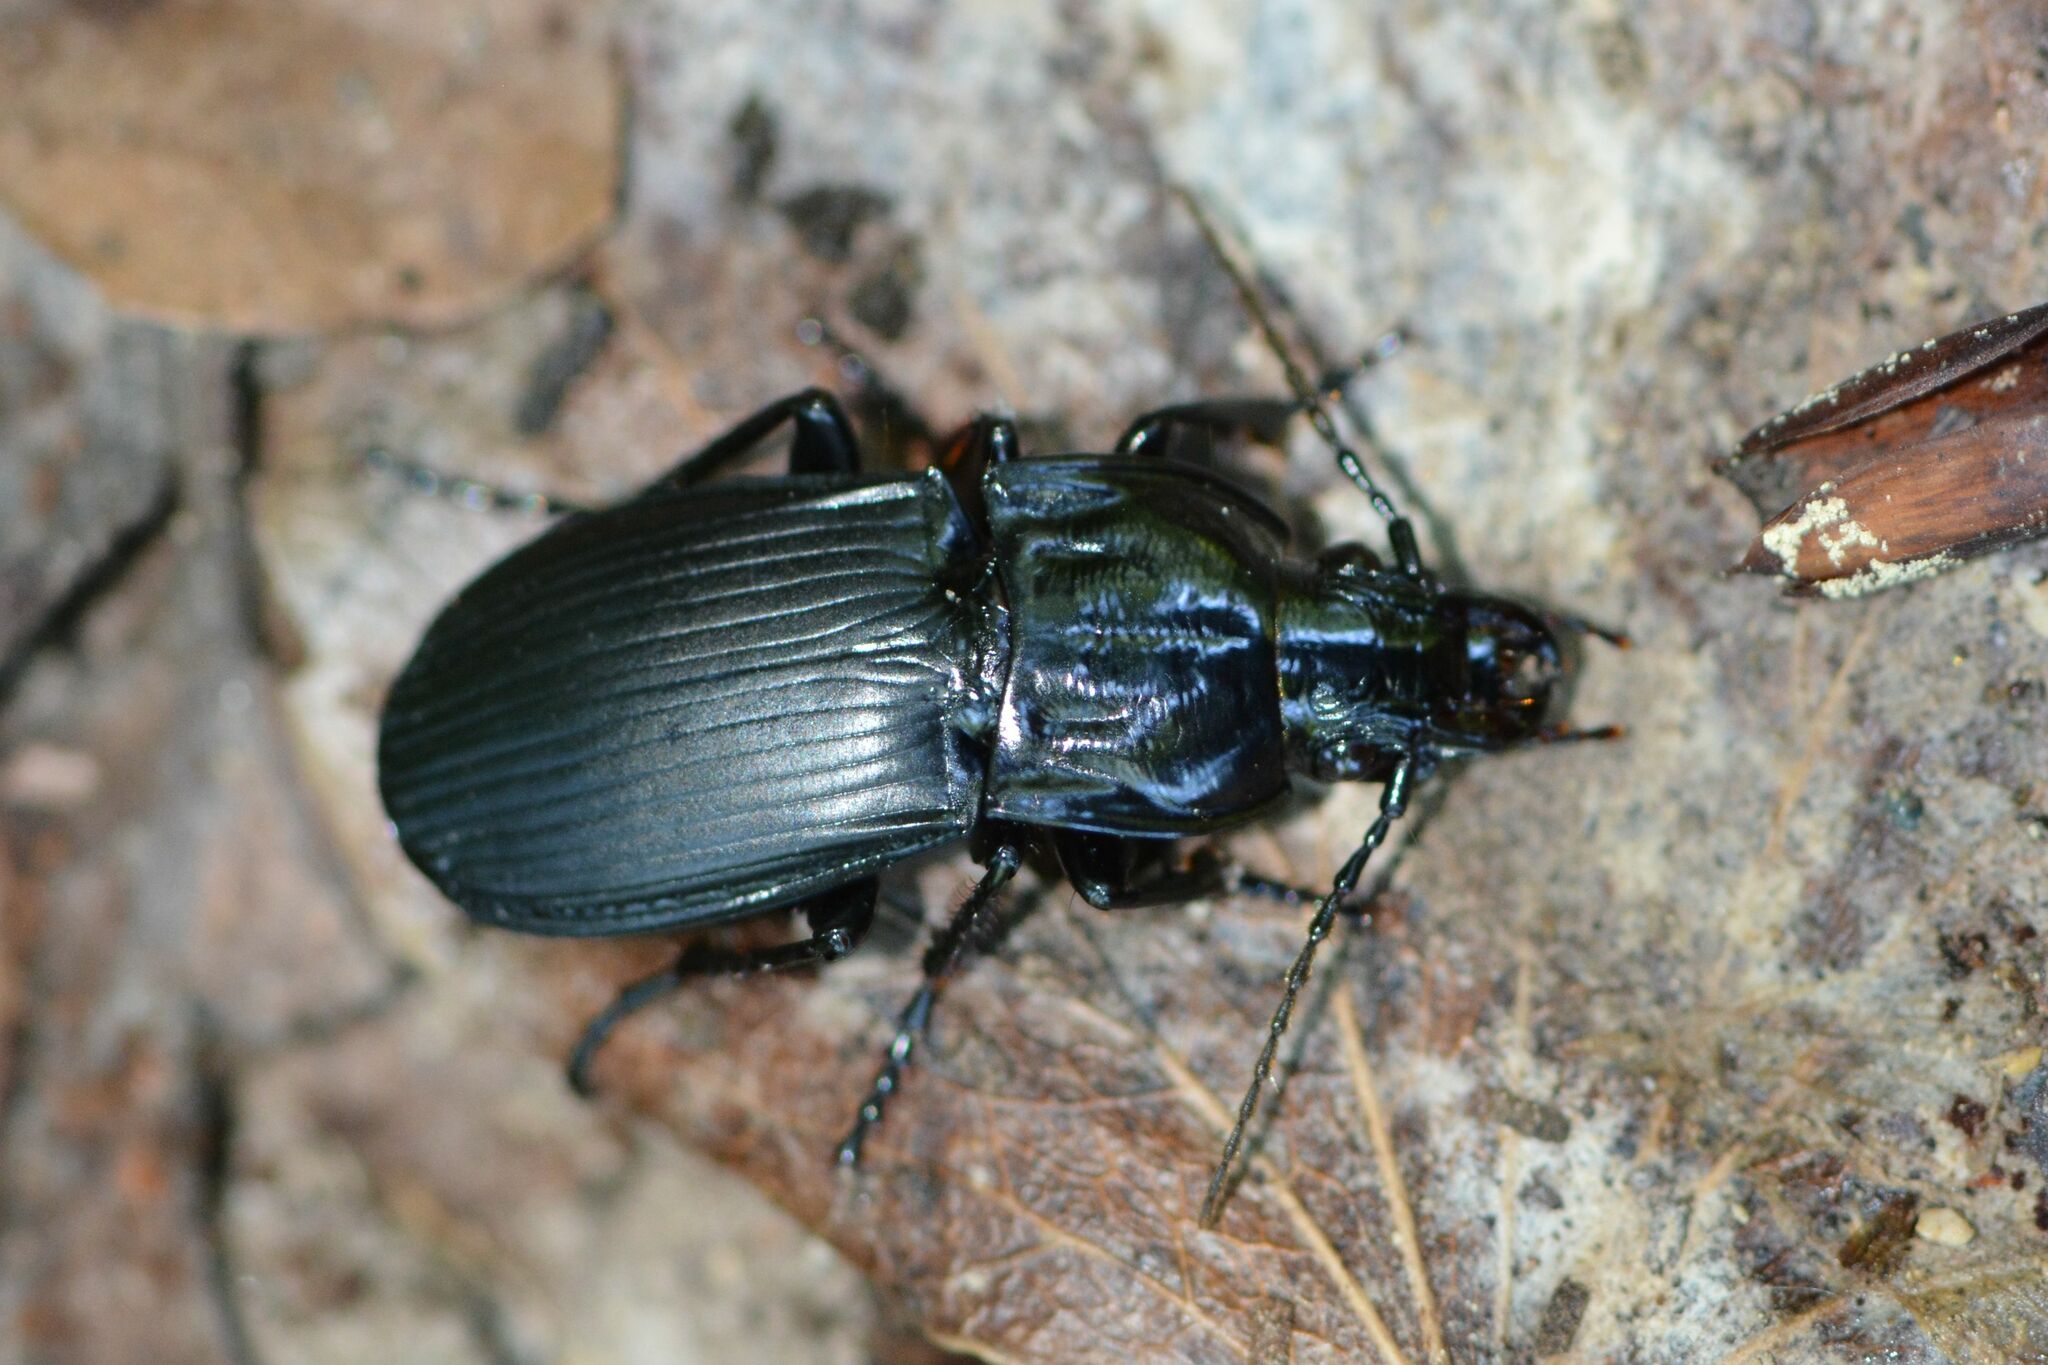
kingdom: Animalia
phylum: Arthropoda
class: Insecta
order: Coleoptera
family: Carabidae
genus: Abax
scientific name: Abax parallelepipedus
